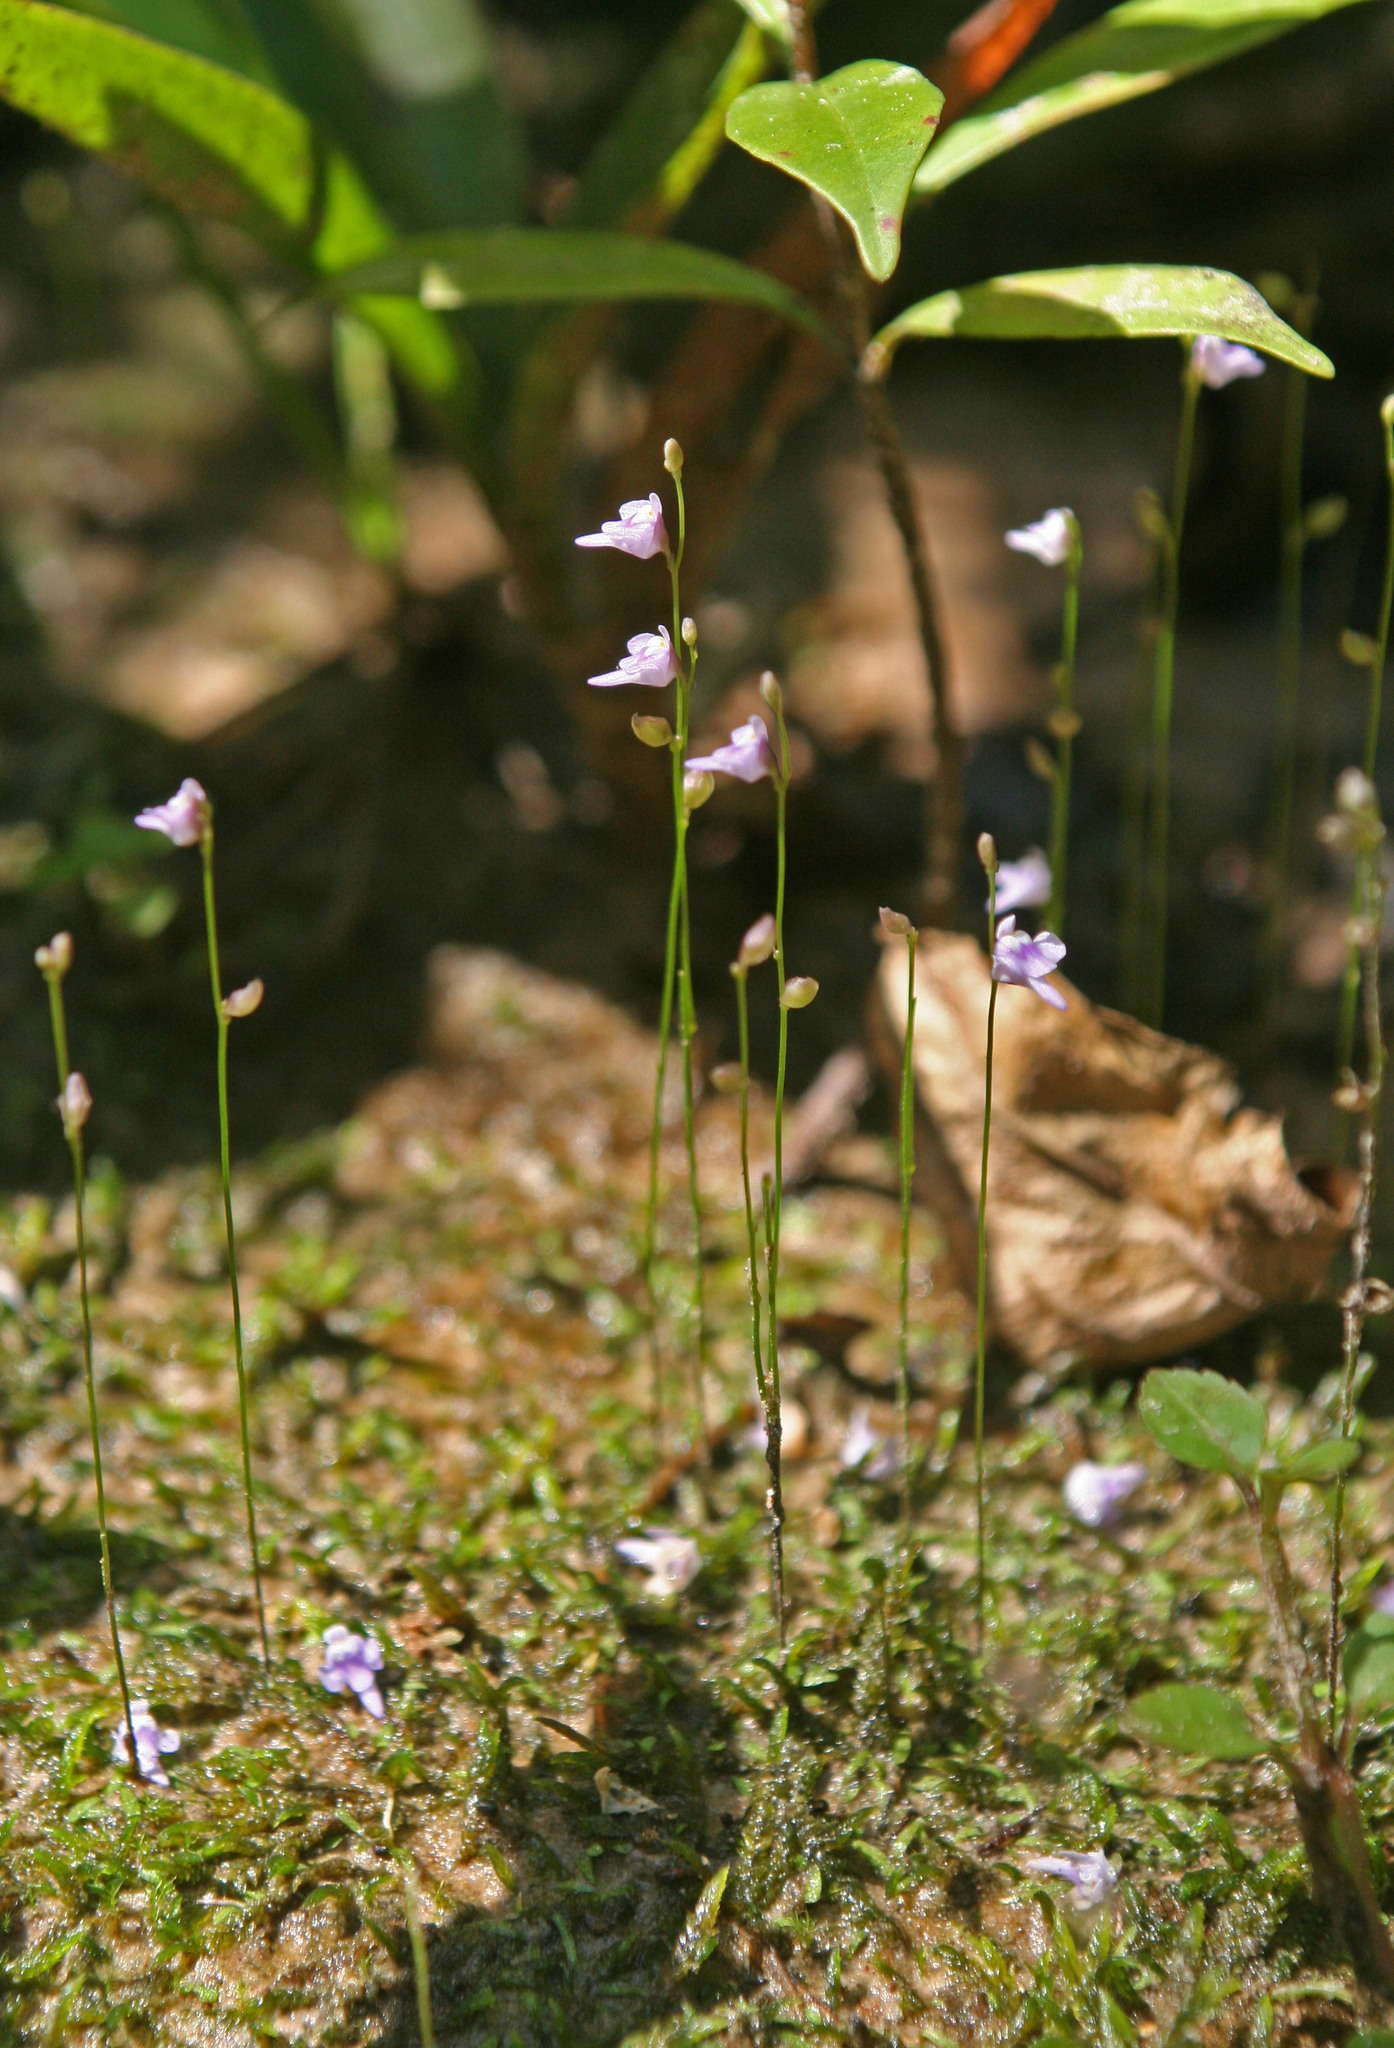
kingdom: Plantae
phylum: Tracheophyta
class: Magnoliopsida
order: Lamiales
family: Lentibulariaceae
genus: Utricularia
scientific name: Utricularia geoffrayi
